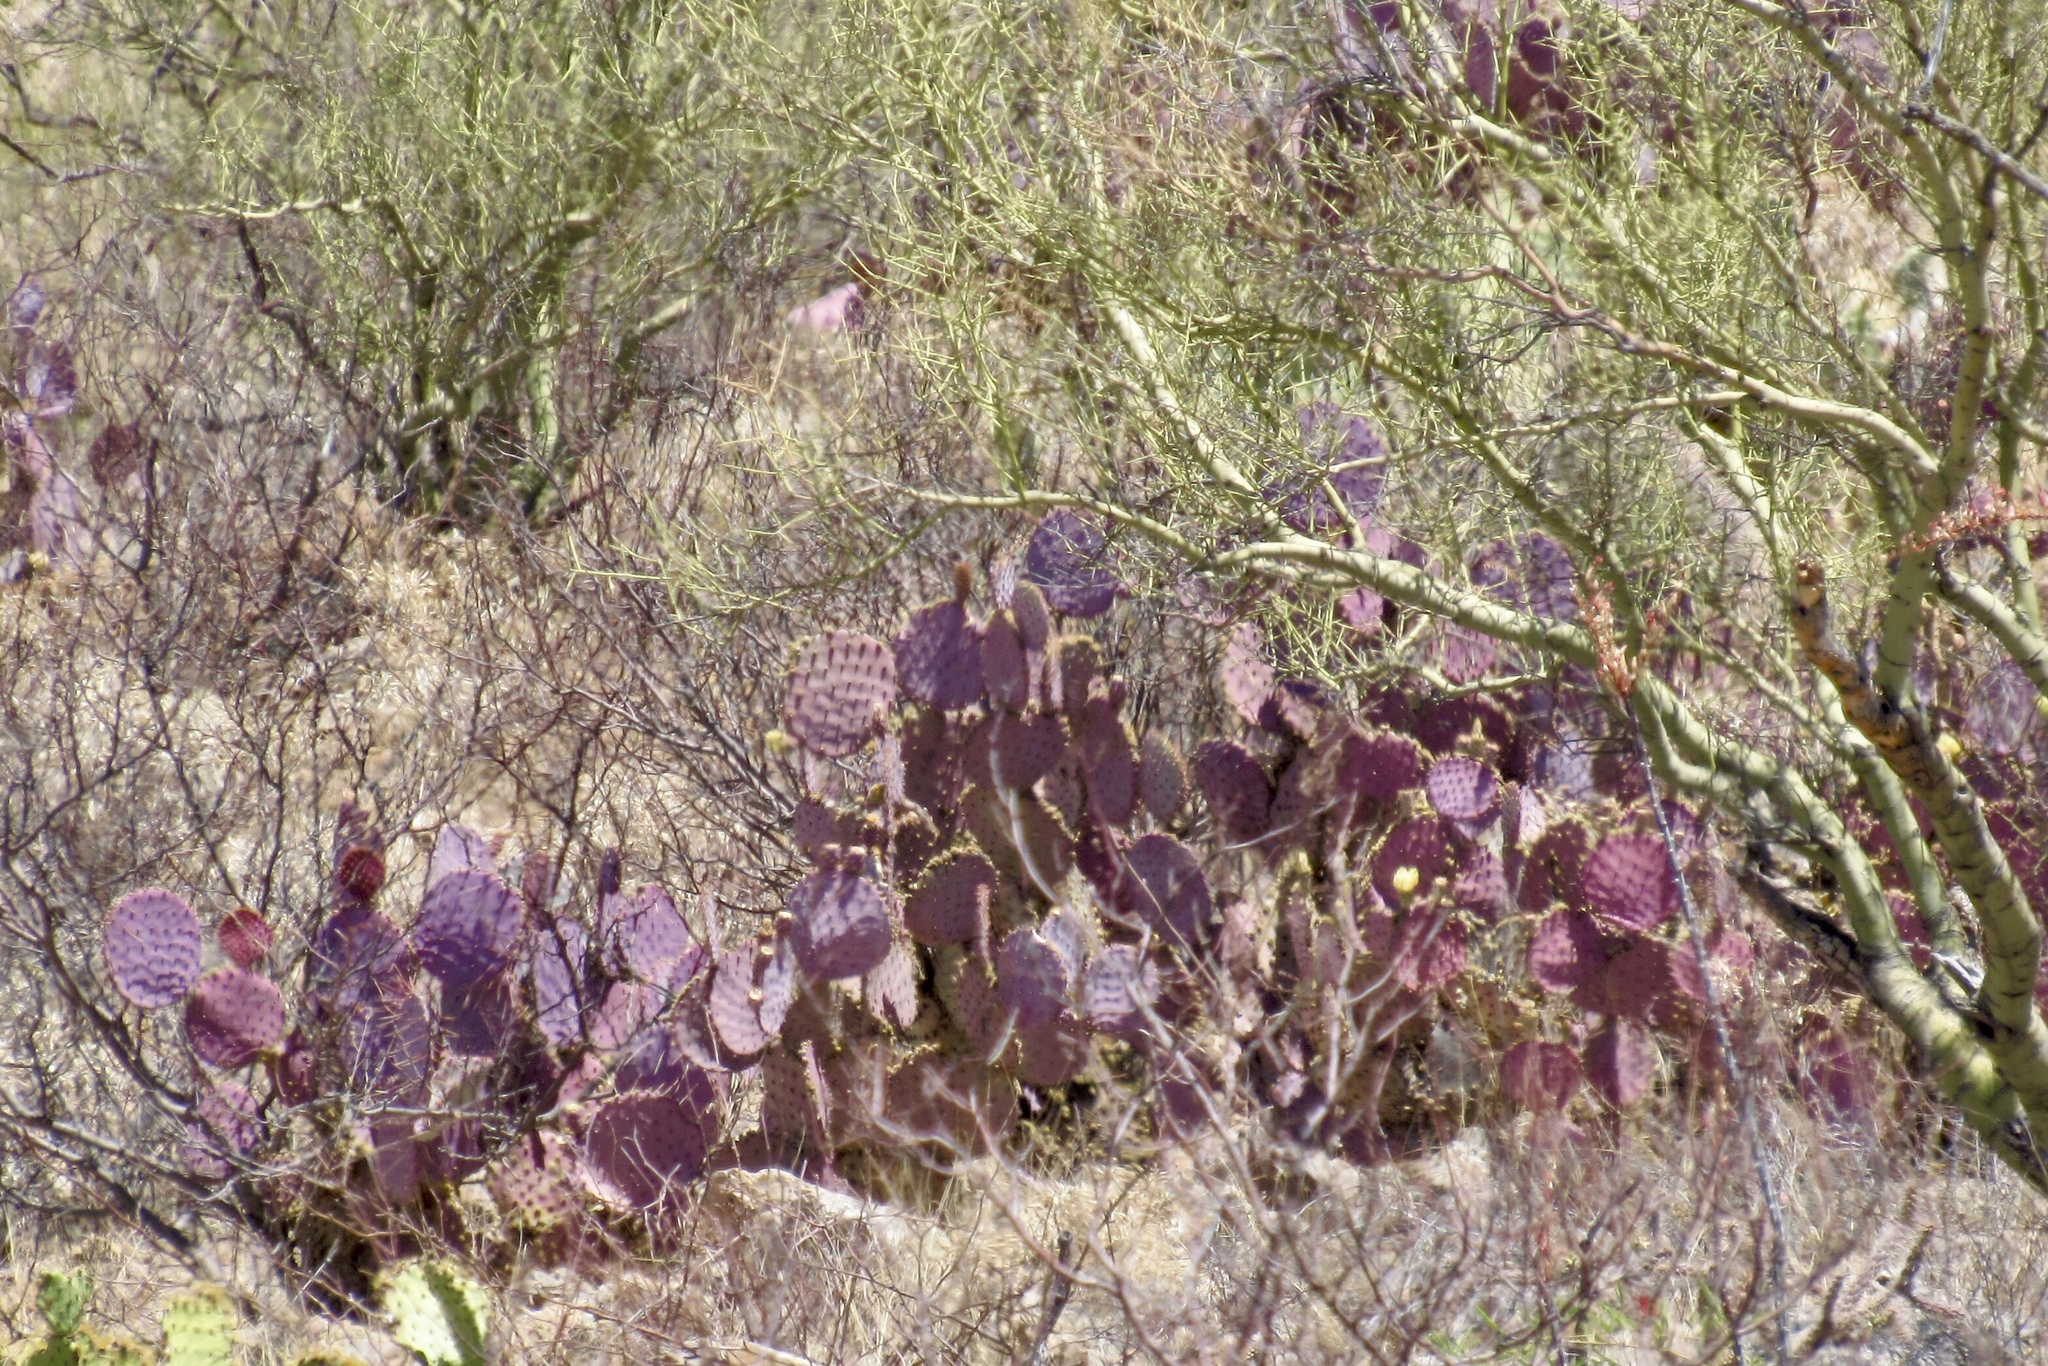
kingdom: Plantae
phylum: Tracheophyta
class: Magnoliopsida
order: Caryophyllales
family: Cactaceae
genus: Opuntia
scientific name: Opuntia gosseliniana
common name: Violet prickly-pear
